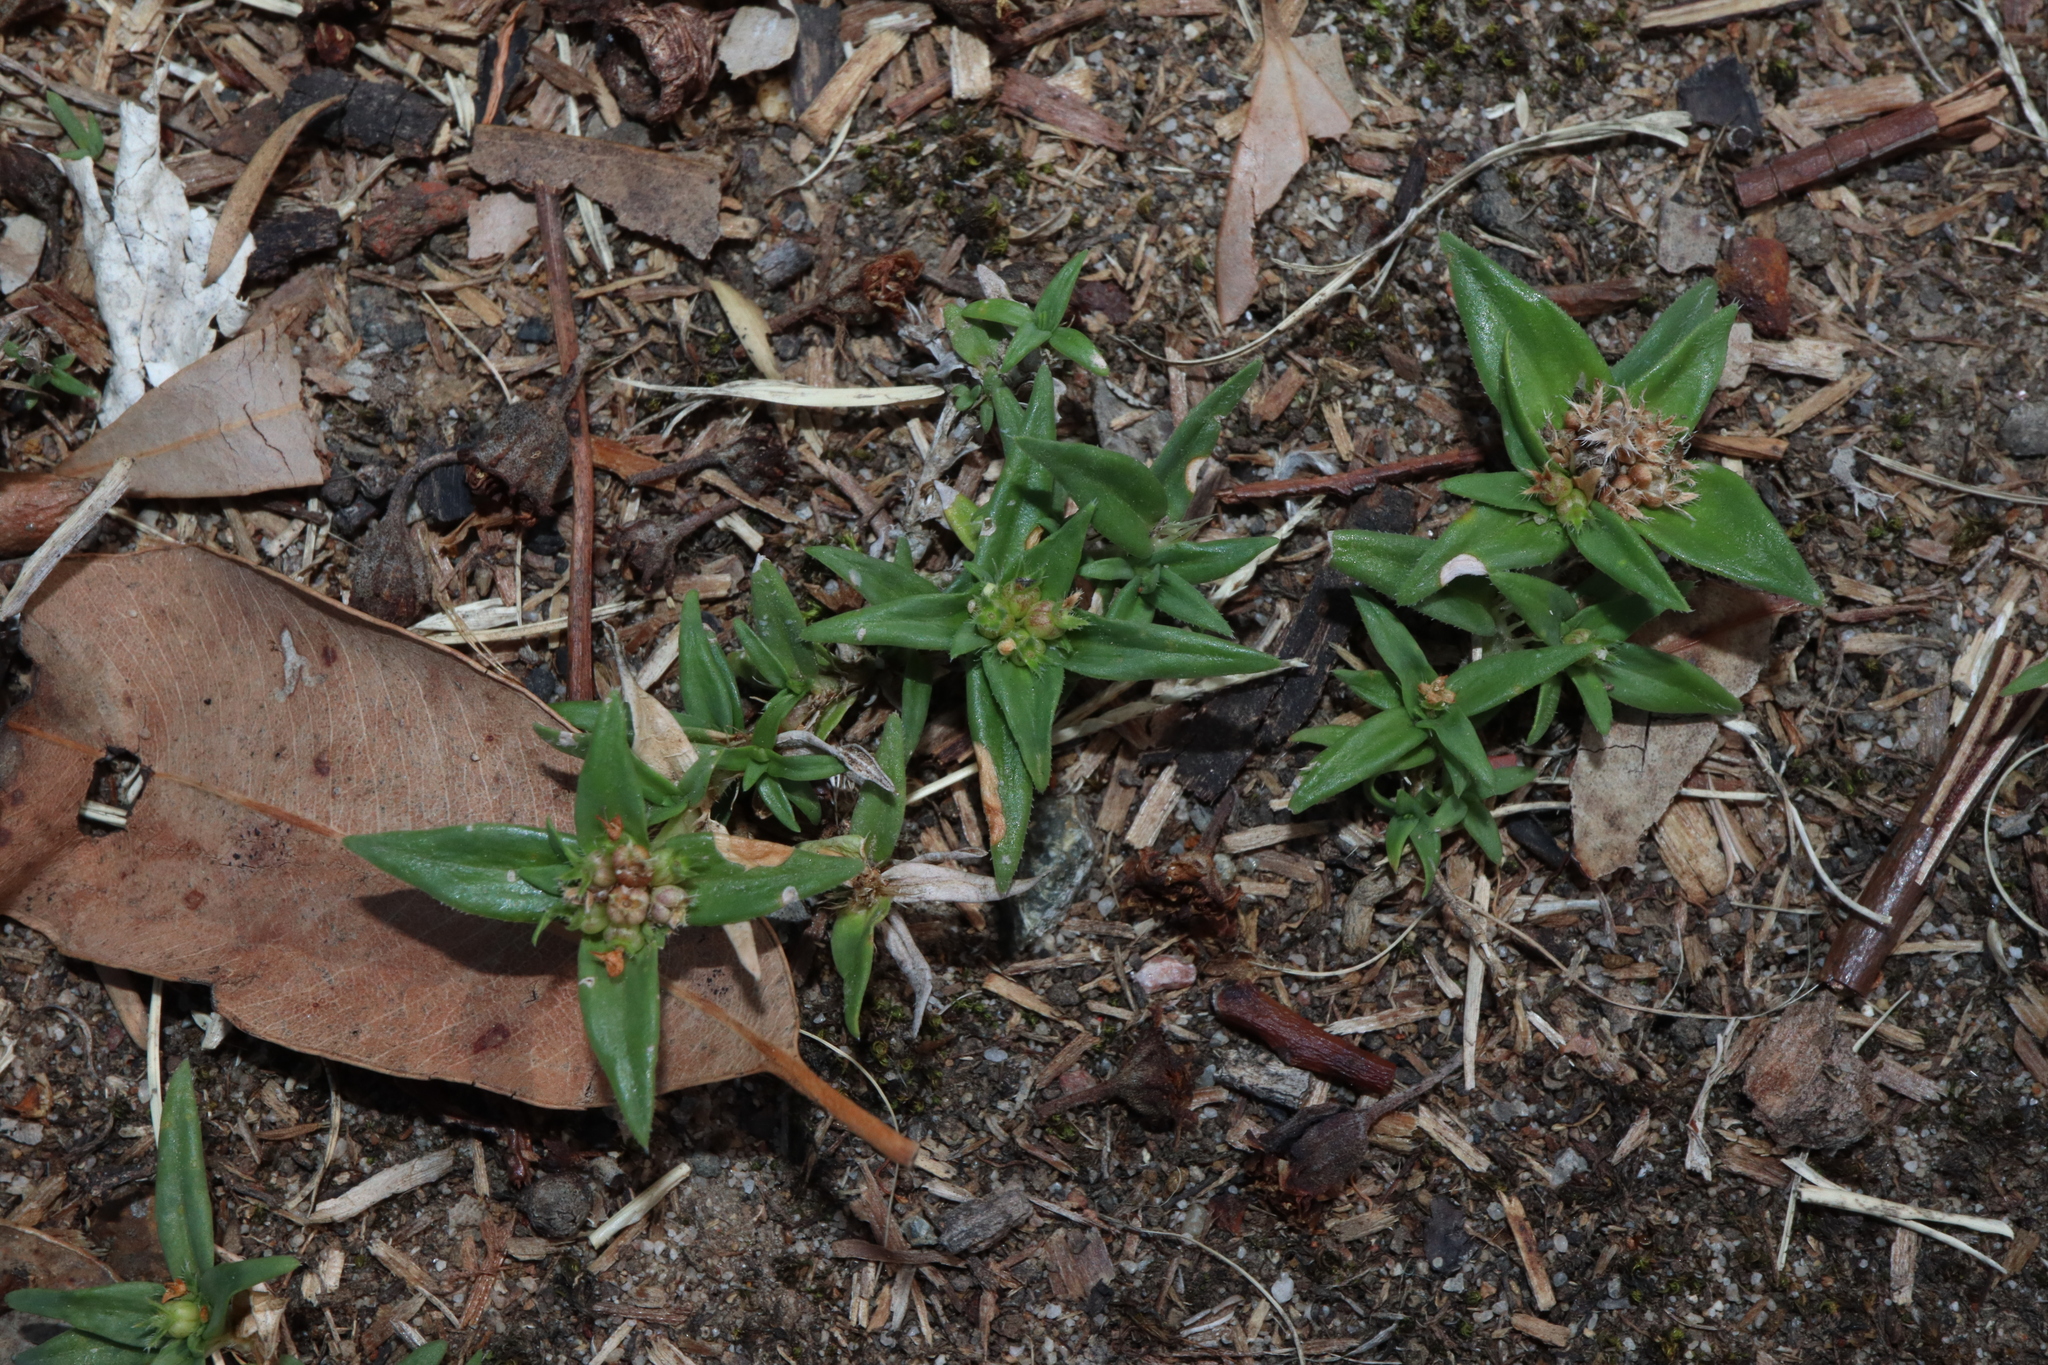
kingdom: Plantae
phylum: Tracheophyta
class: Magnoliopsida
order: Gentianales
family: Rubiaceae
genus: Richardia
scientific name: Richardia stellaris
